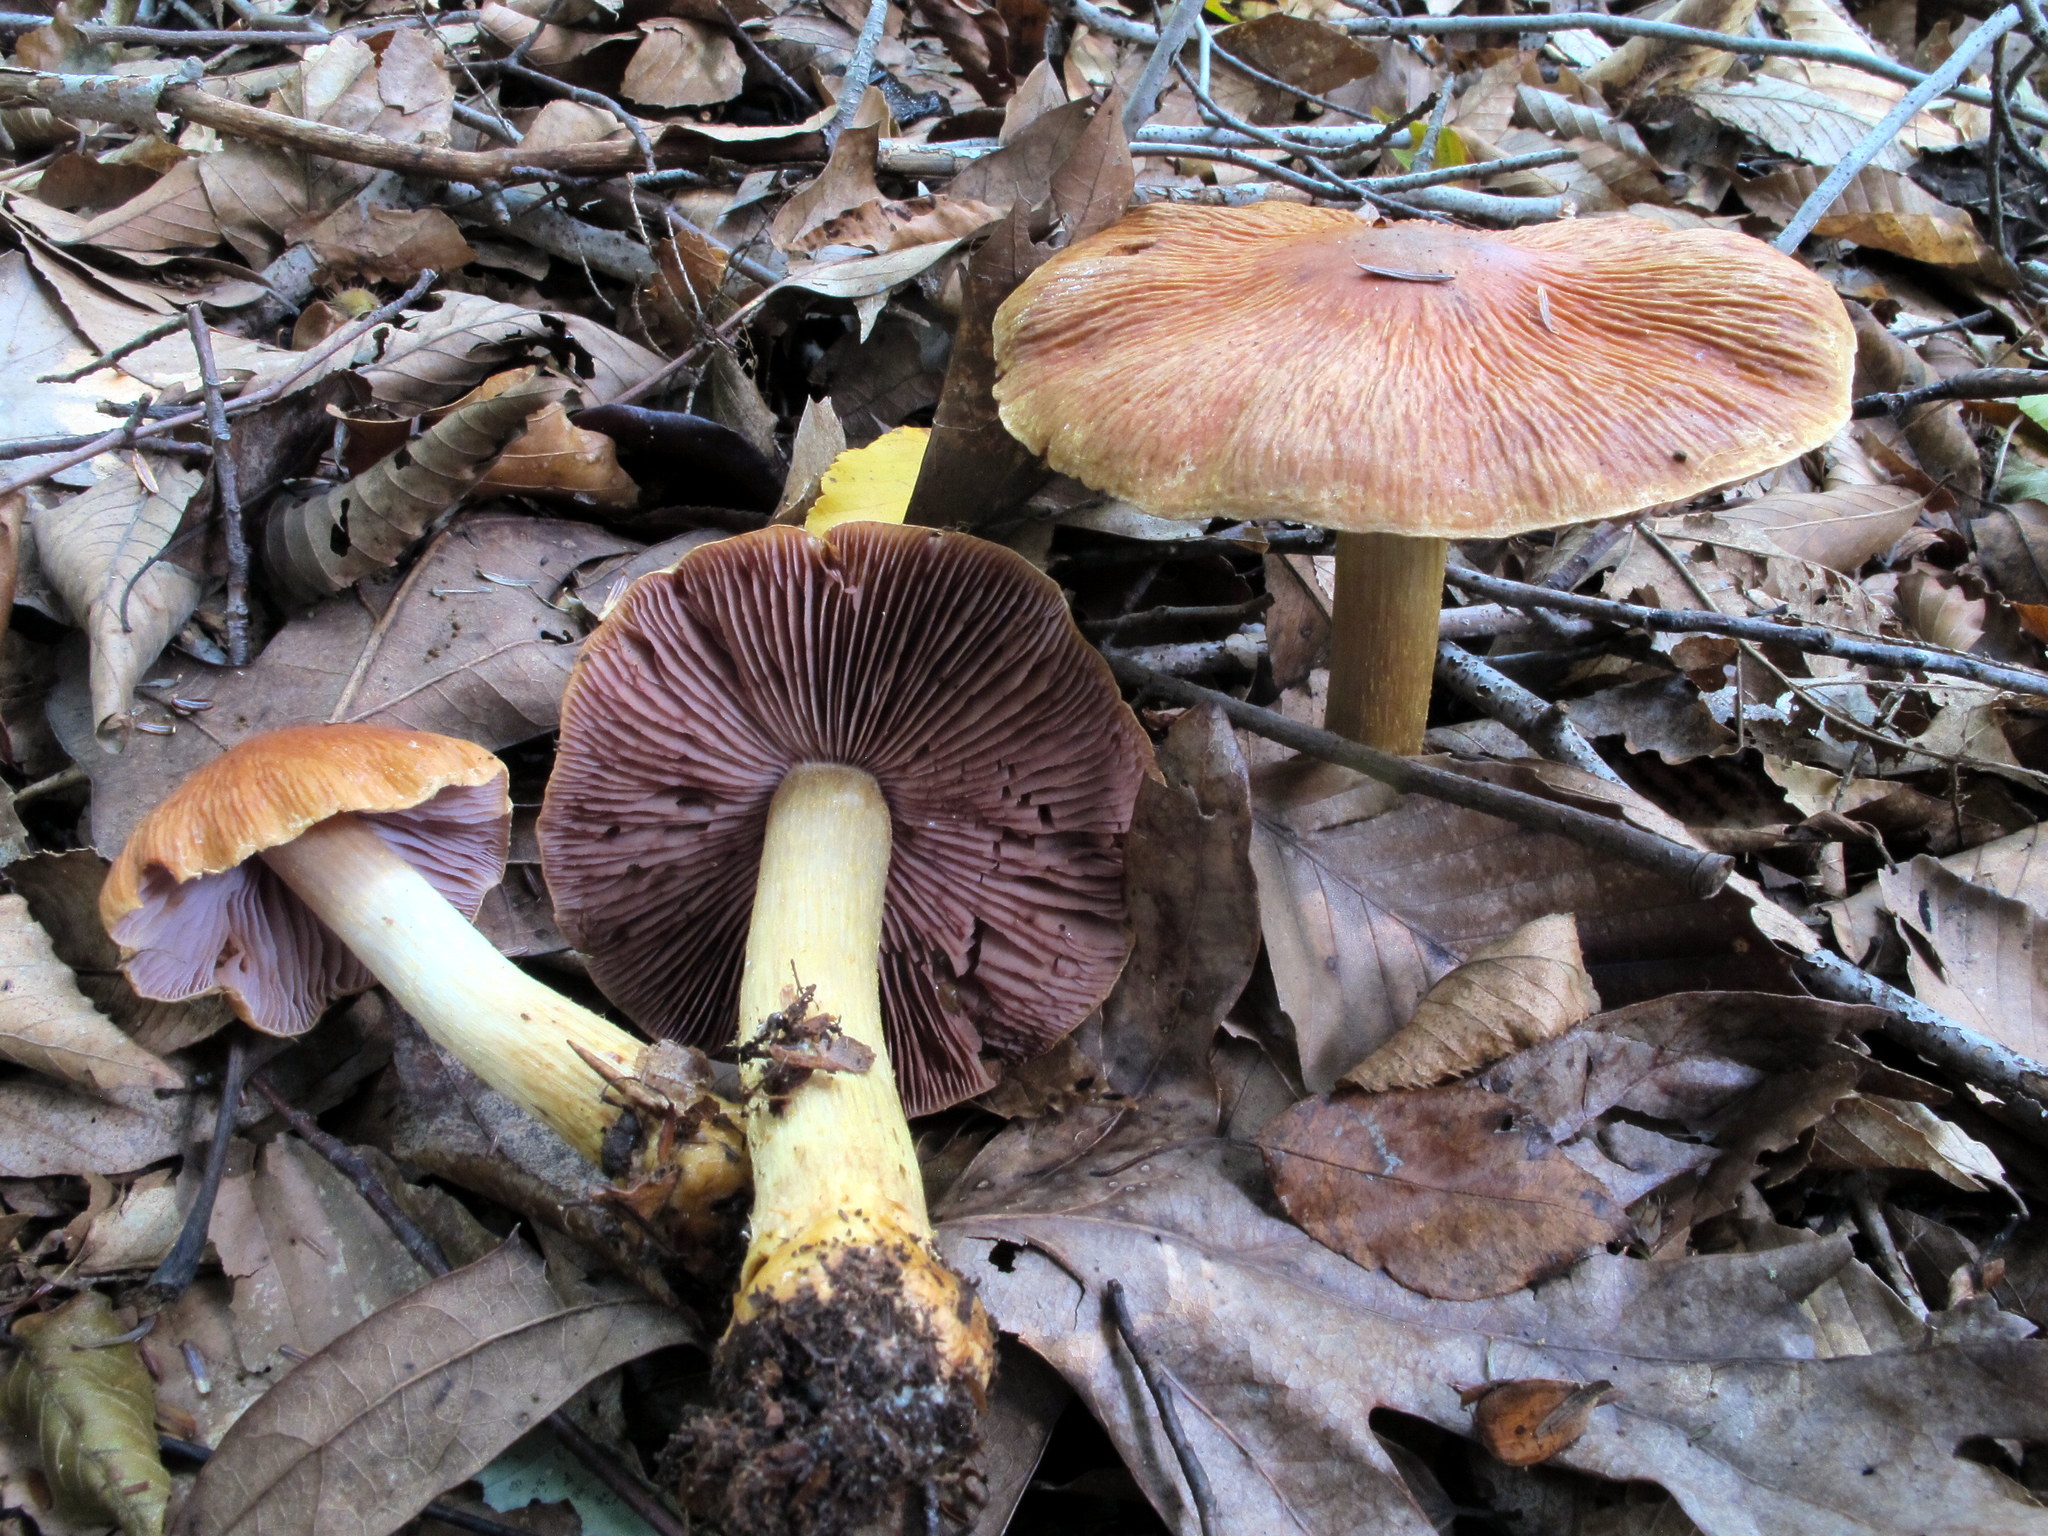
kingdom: Fungi
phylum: Basidiomycota
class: Agaricomycetes
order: Agaricales
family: Cortinariaceae
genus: Cortinarius
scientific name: Cortinarius corrugatus
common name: Wrinkled cortinarius
